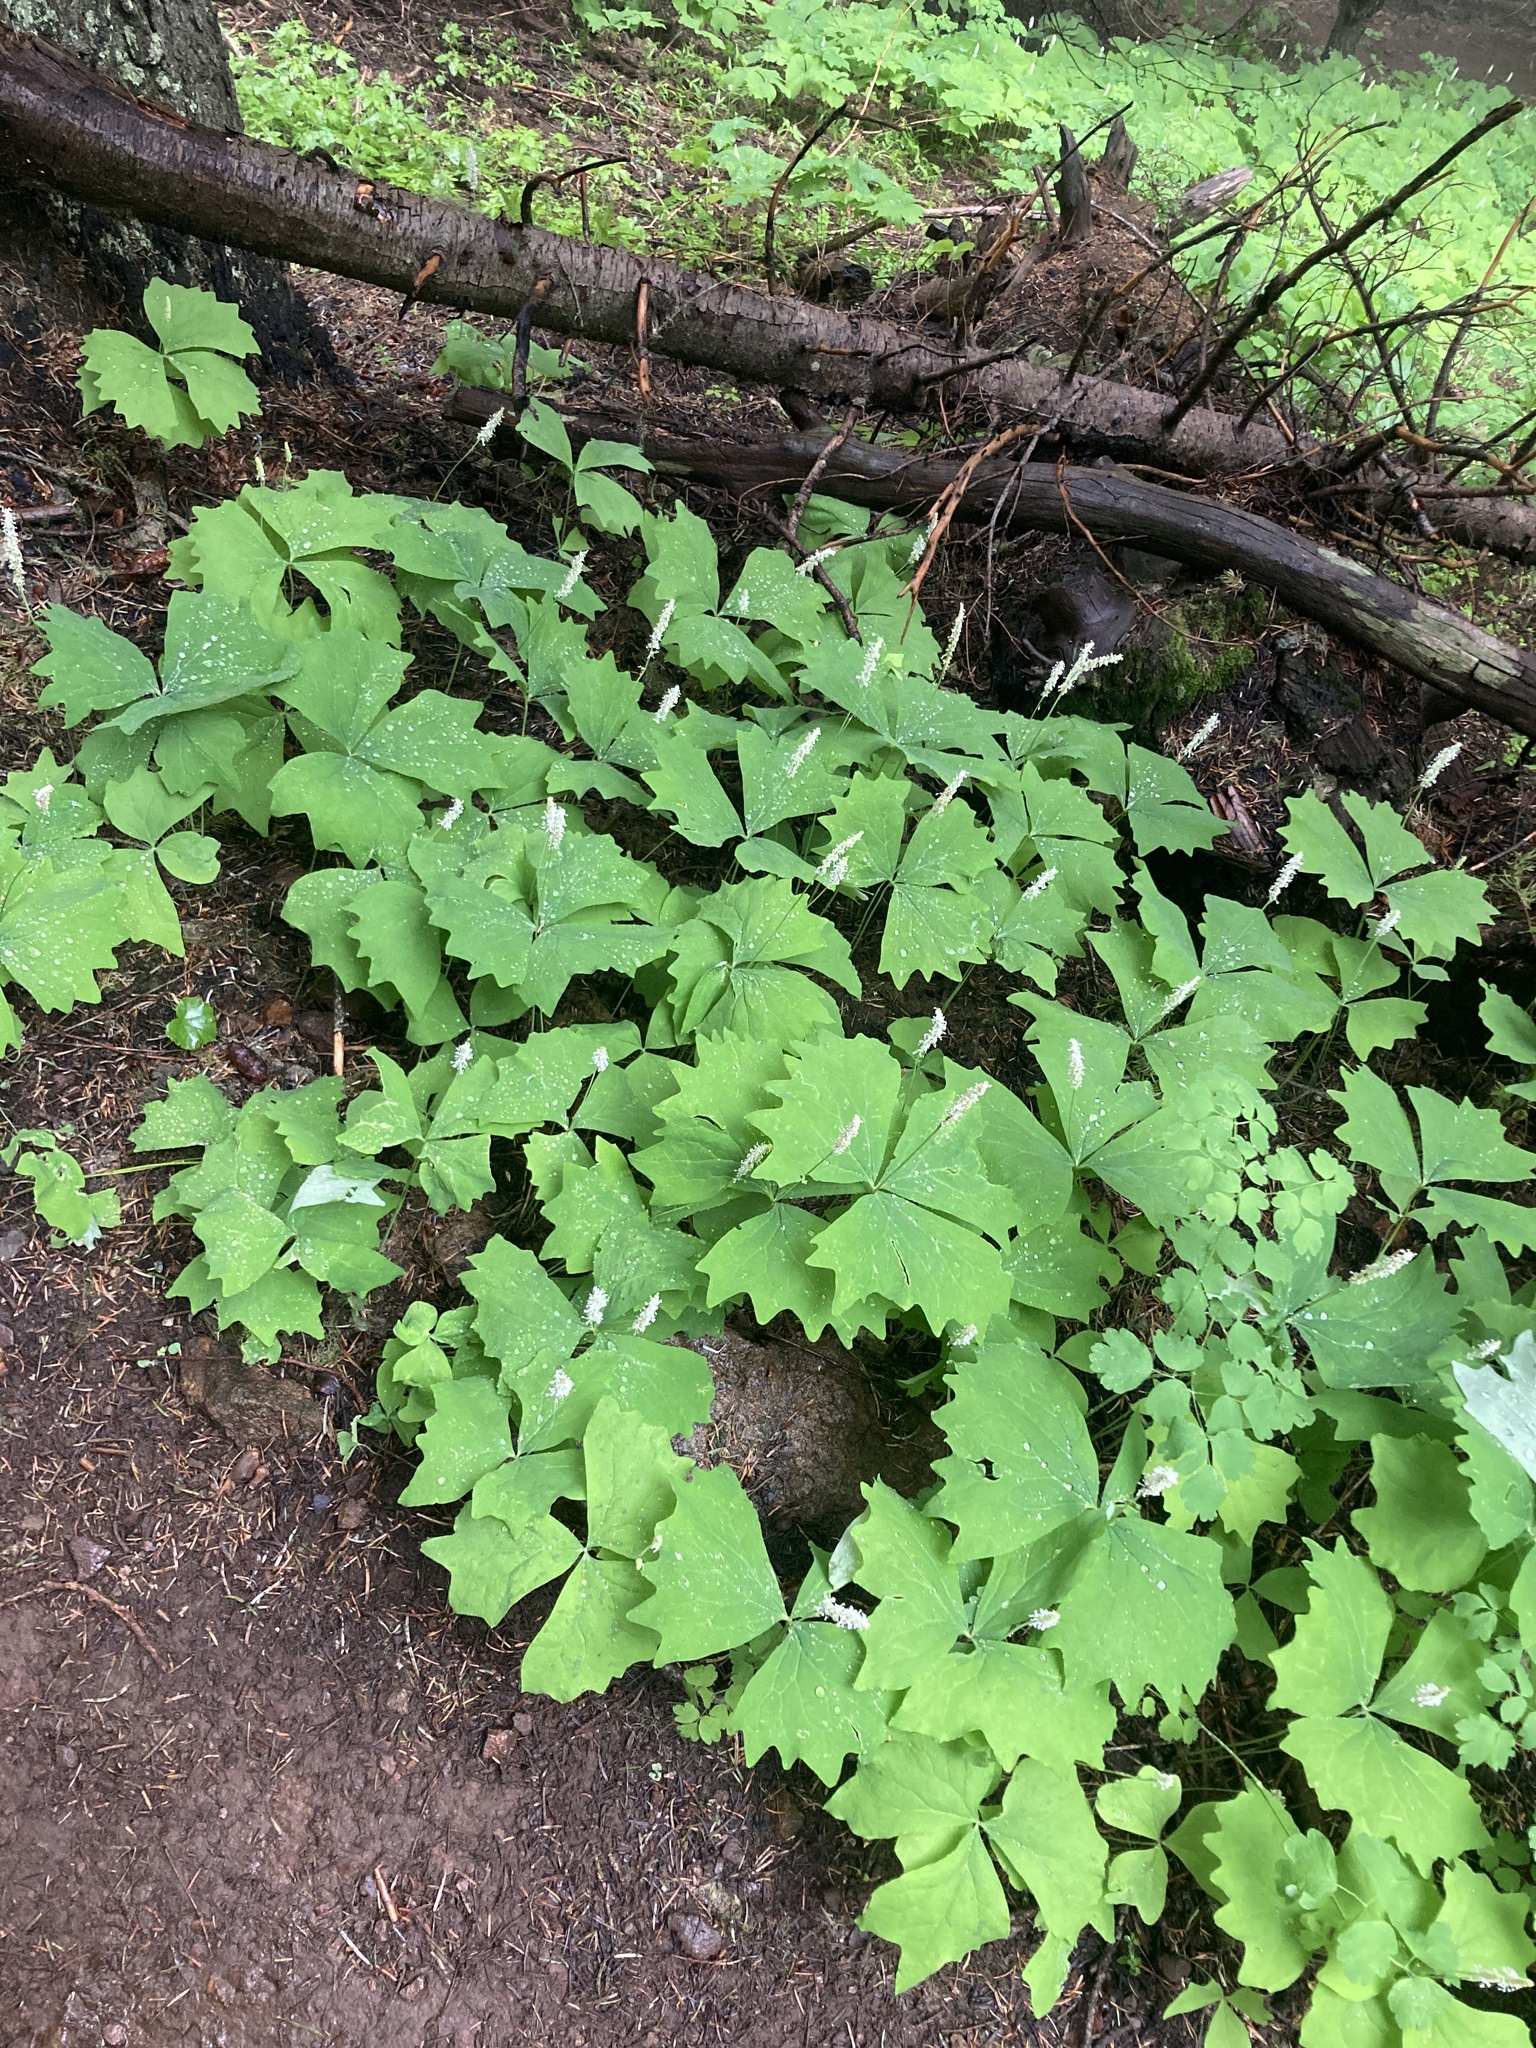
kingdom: Plantae
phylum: Tracheophyta
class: Magnoliopsida
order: Ranunculales
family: Berberidaceae
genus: Achlys
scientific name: Achlys triphylla
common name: Vanilla-leaf
